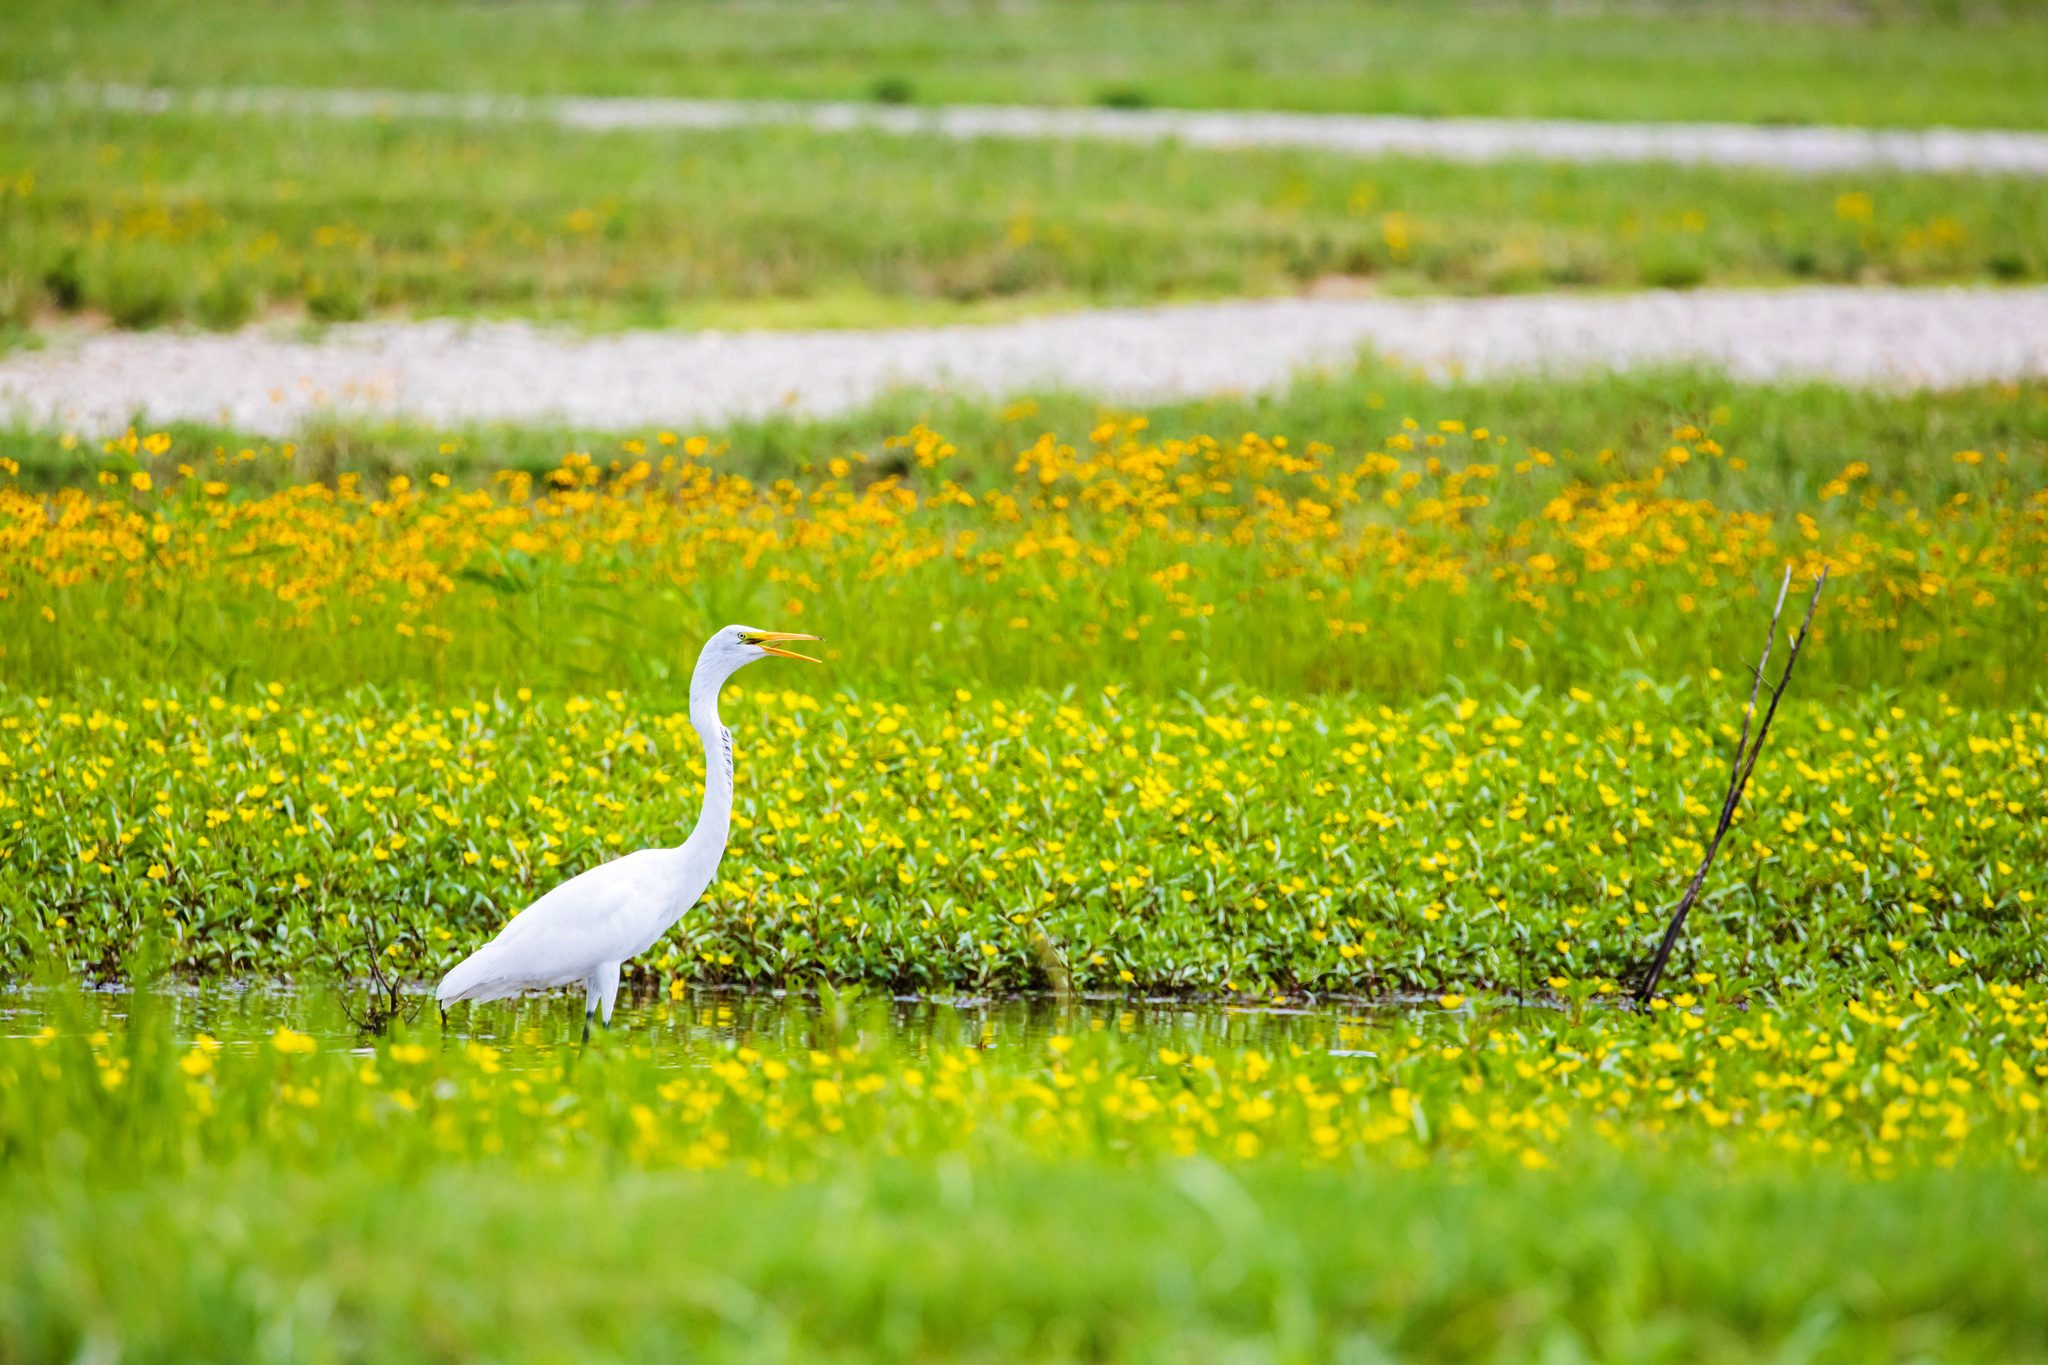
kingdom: Animalia
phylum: Chordata
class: Aves
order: Pelecaniformes
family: Ardeidae
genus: Ardea
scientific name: Ardea alba
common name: Great egret
